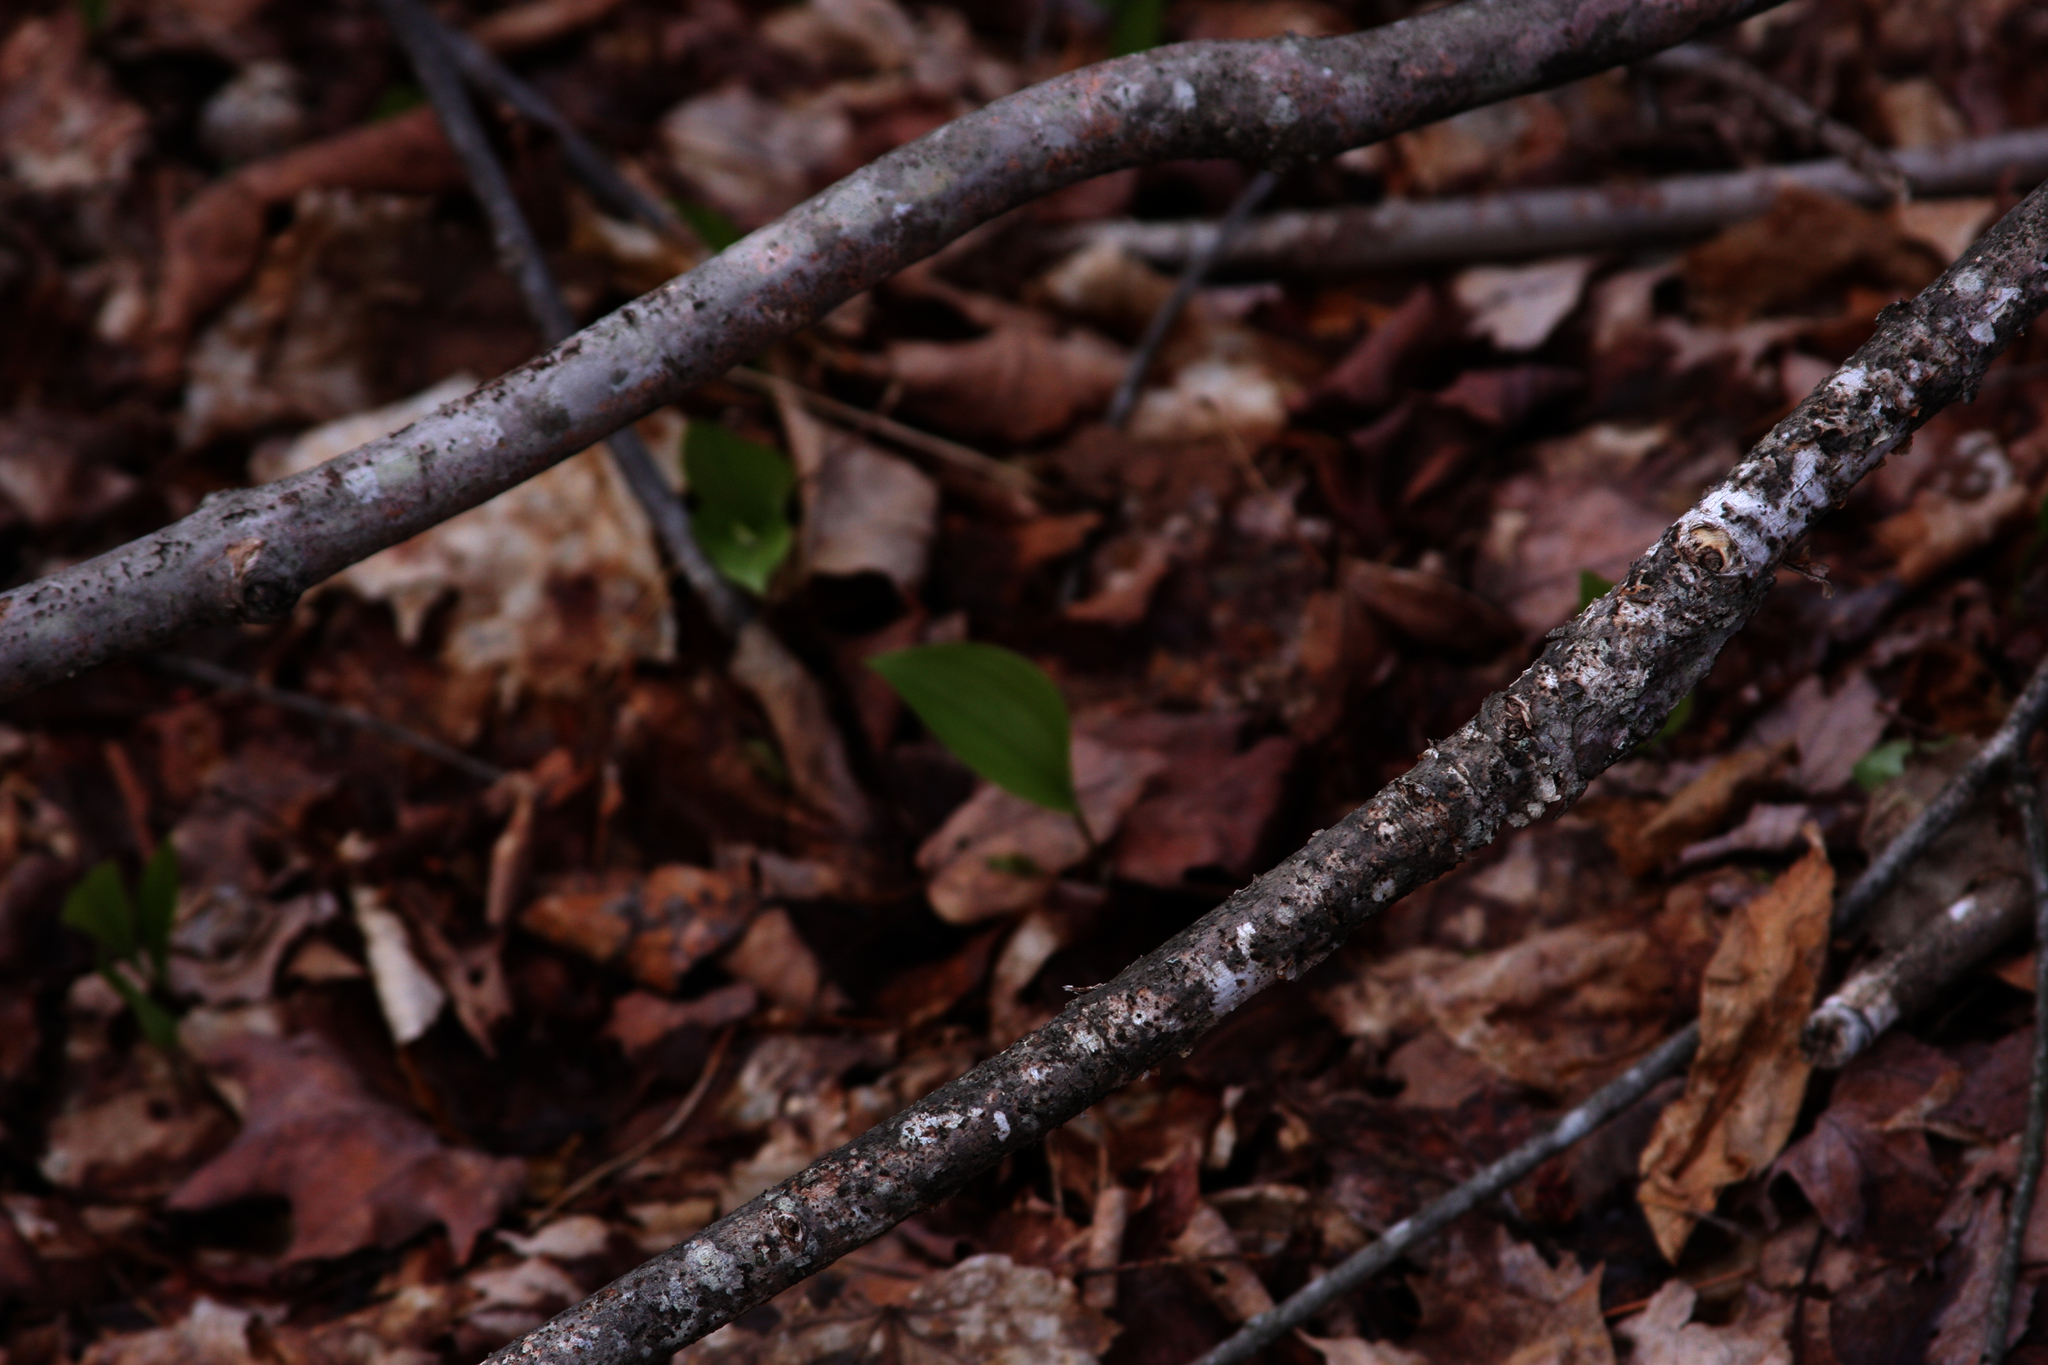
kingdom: Plantae
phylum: Tracheophyta
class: Liliopsida
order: Asparagales
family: Asparagaceae
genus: Maianthemum
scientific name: Maianthemum canadense
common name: False lily-of-the-valley
